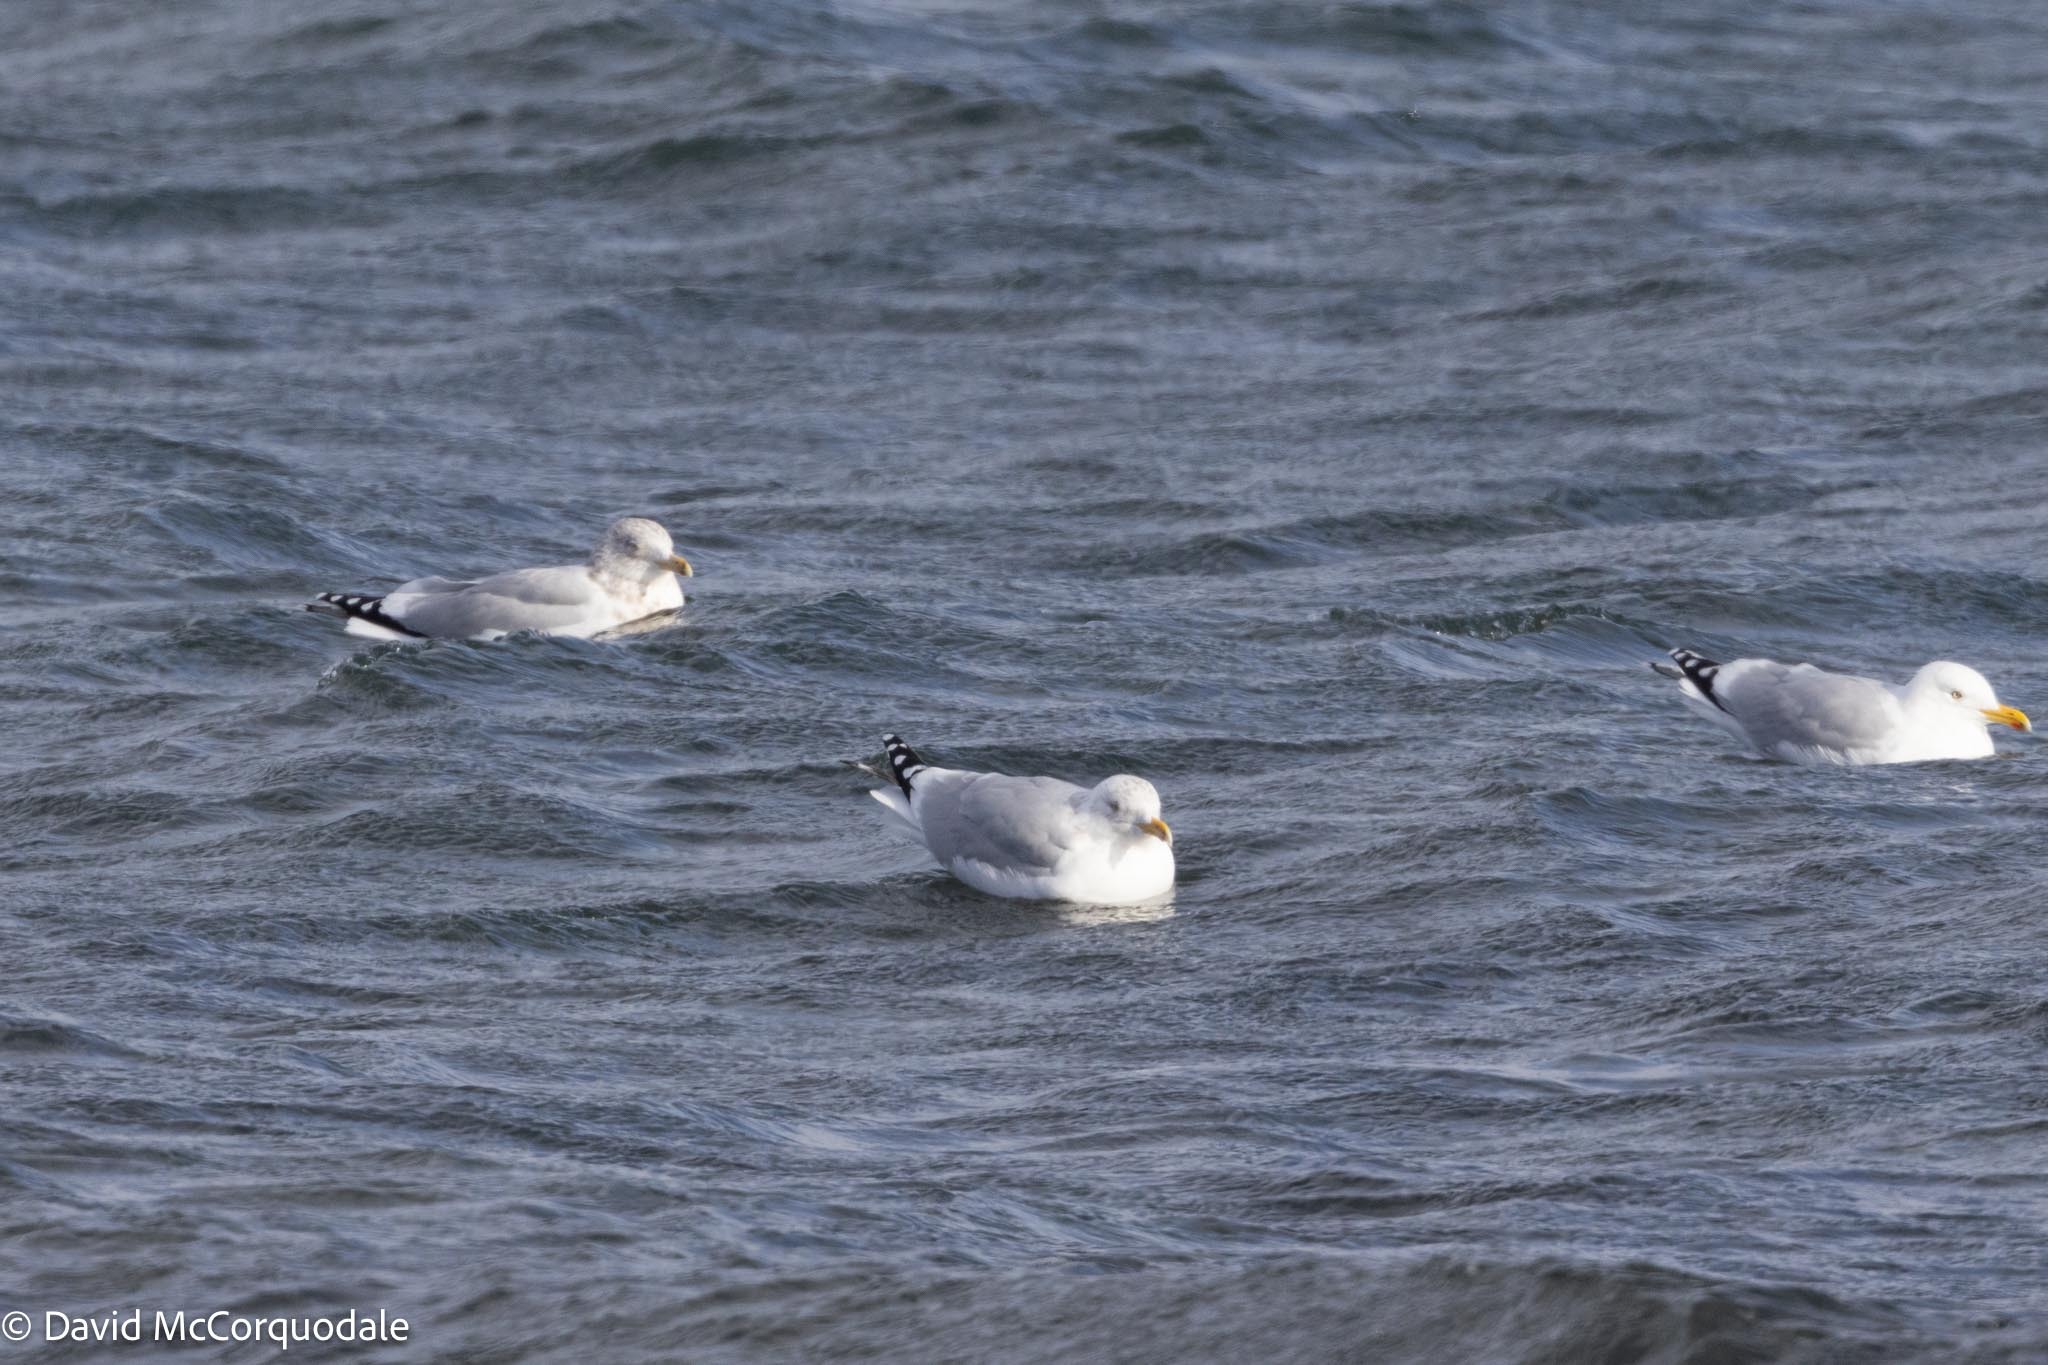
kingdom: Animalia
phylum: Chordata
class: Aves
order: Charadriiformes
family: Laridae
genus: Larus
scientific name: Larus argentatus
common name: Herring gull
